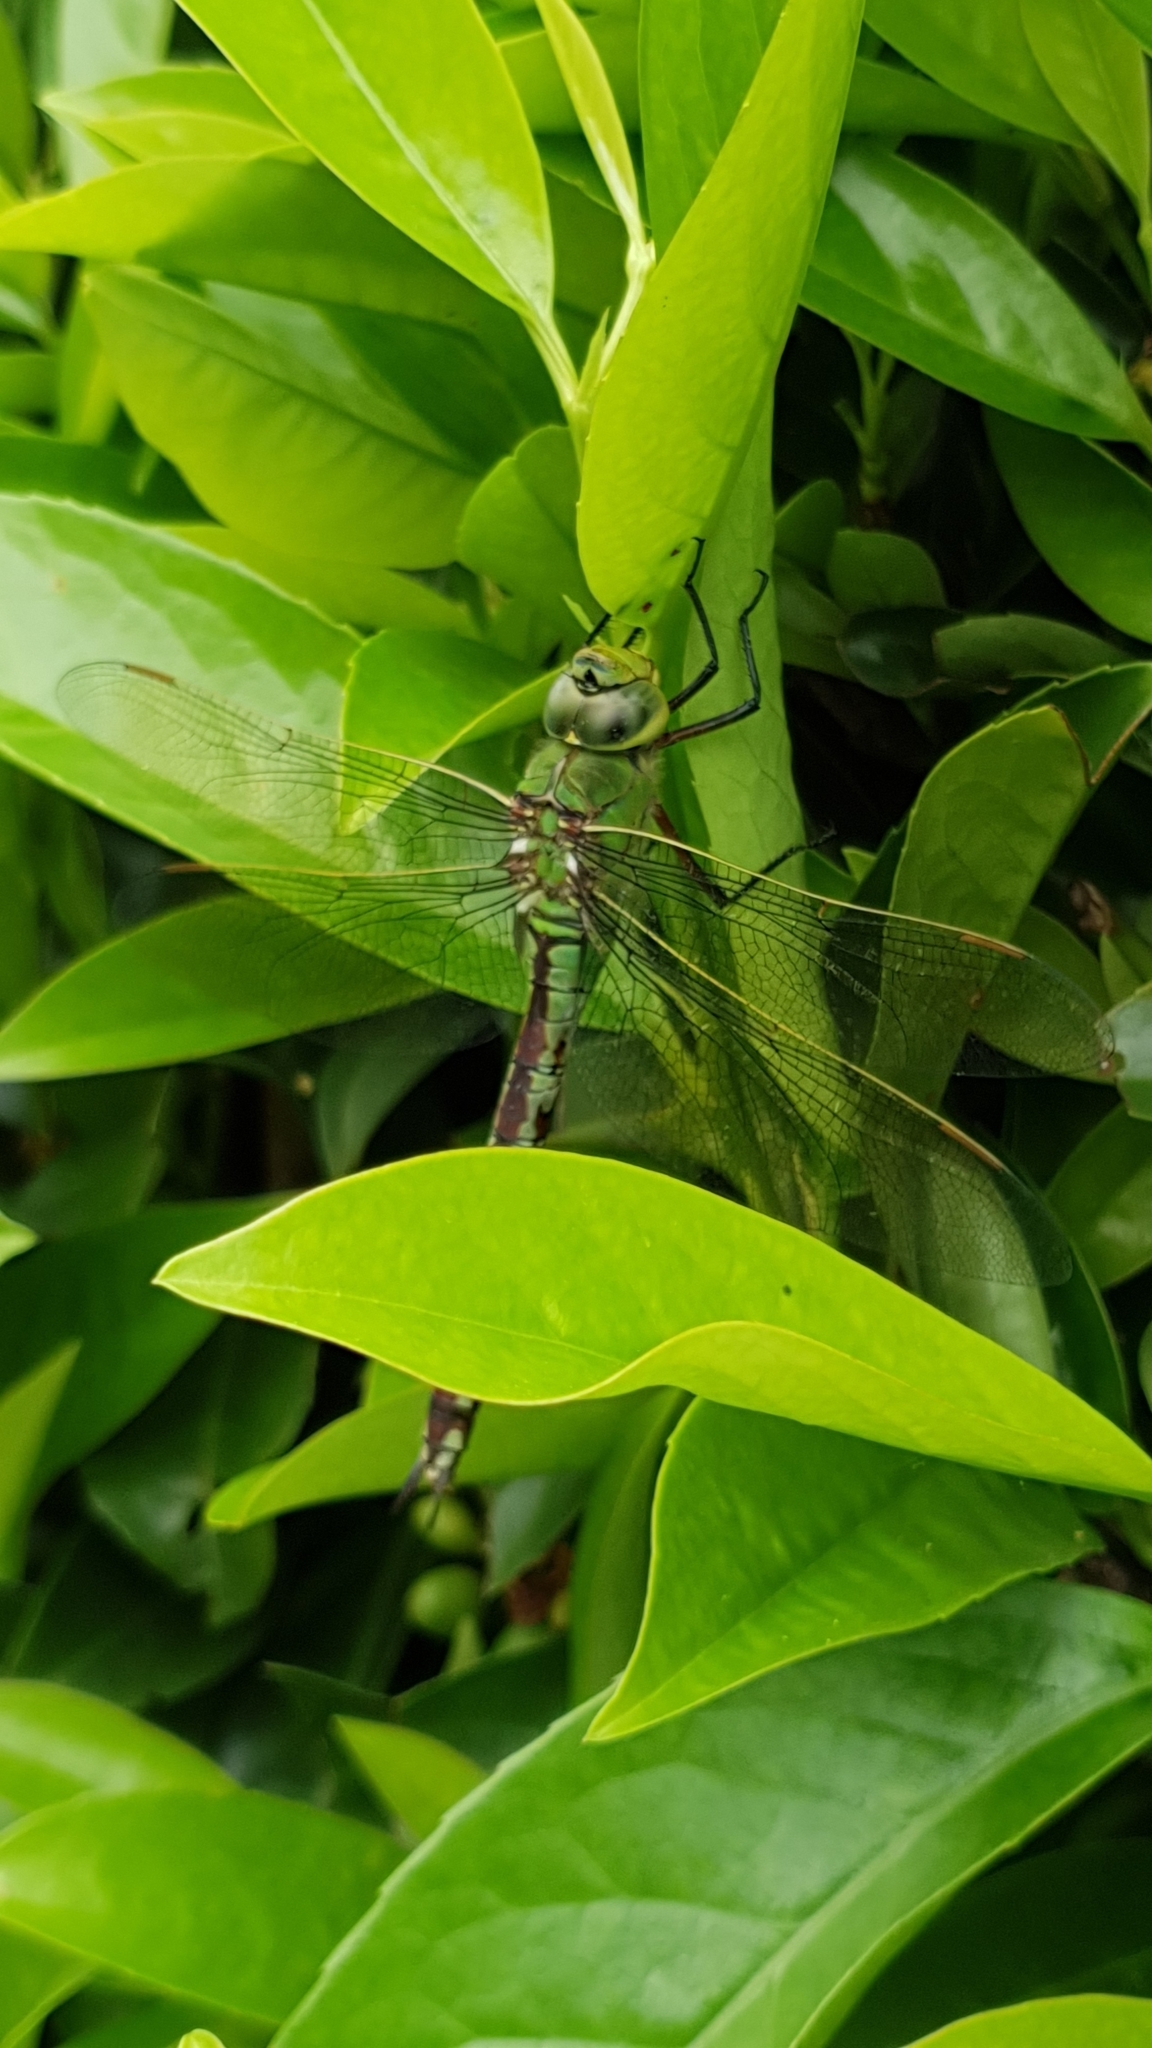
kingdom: Animalia
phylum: Arthropoda
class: Insecta
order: Odonata
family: Aeshnidae
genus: Anax
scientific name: Anax imperator
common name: Emperor dragonfly
